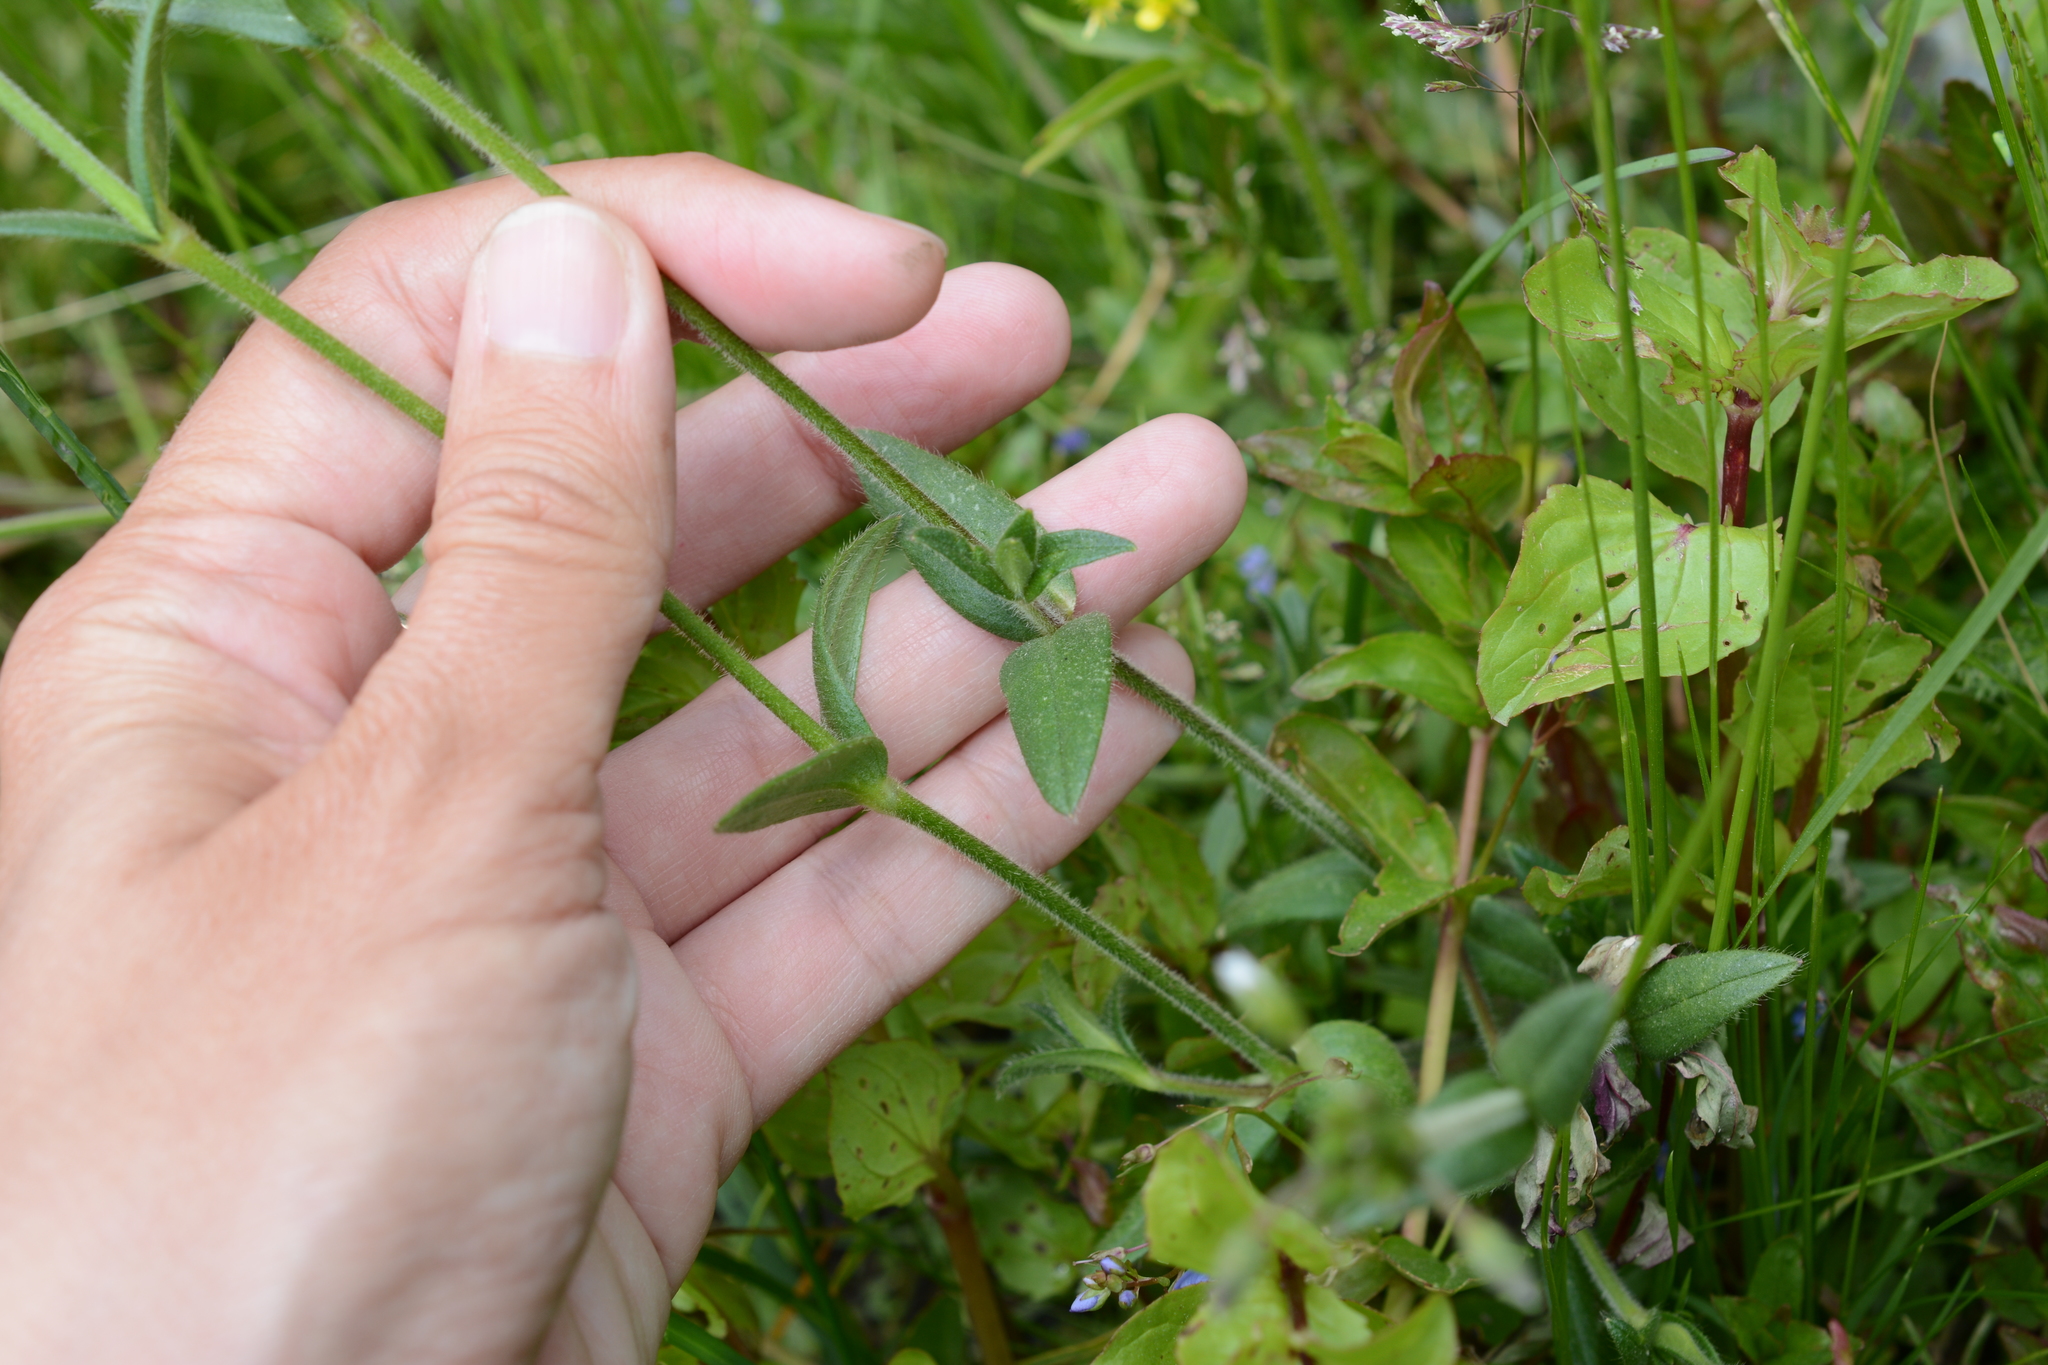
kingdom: Plantae
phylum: Tracheophyta
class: Magnoliopsida
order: Caryophyllales
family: Caryophyllaceae
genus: Cerastium
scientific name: Cerastium fontanum
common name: Common mouse-ear
